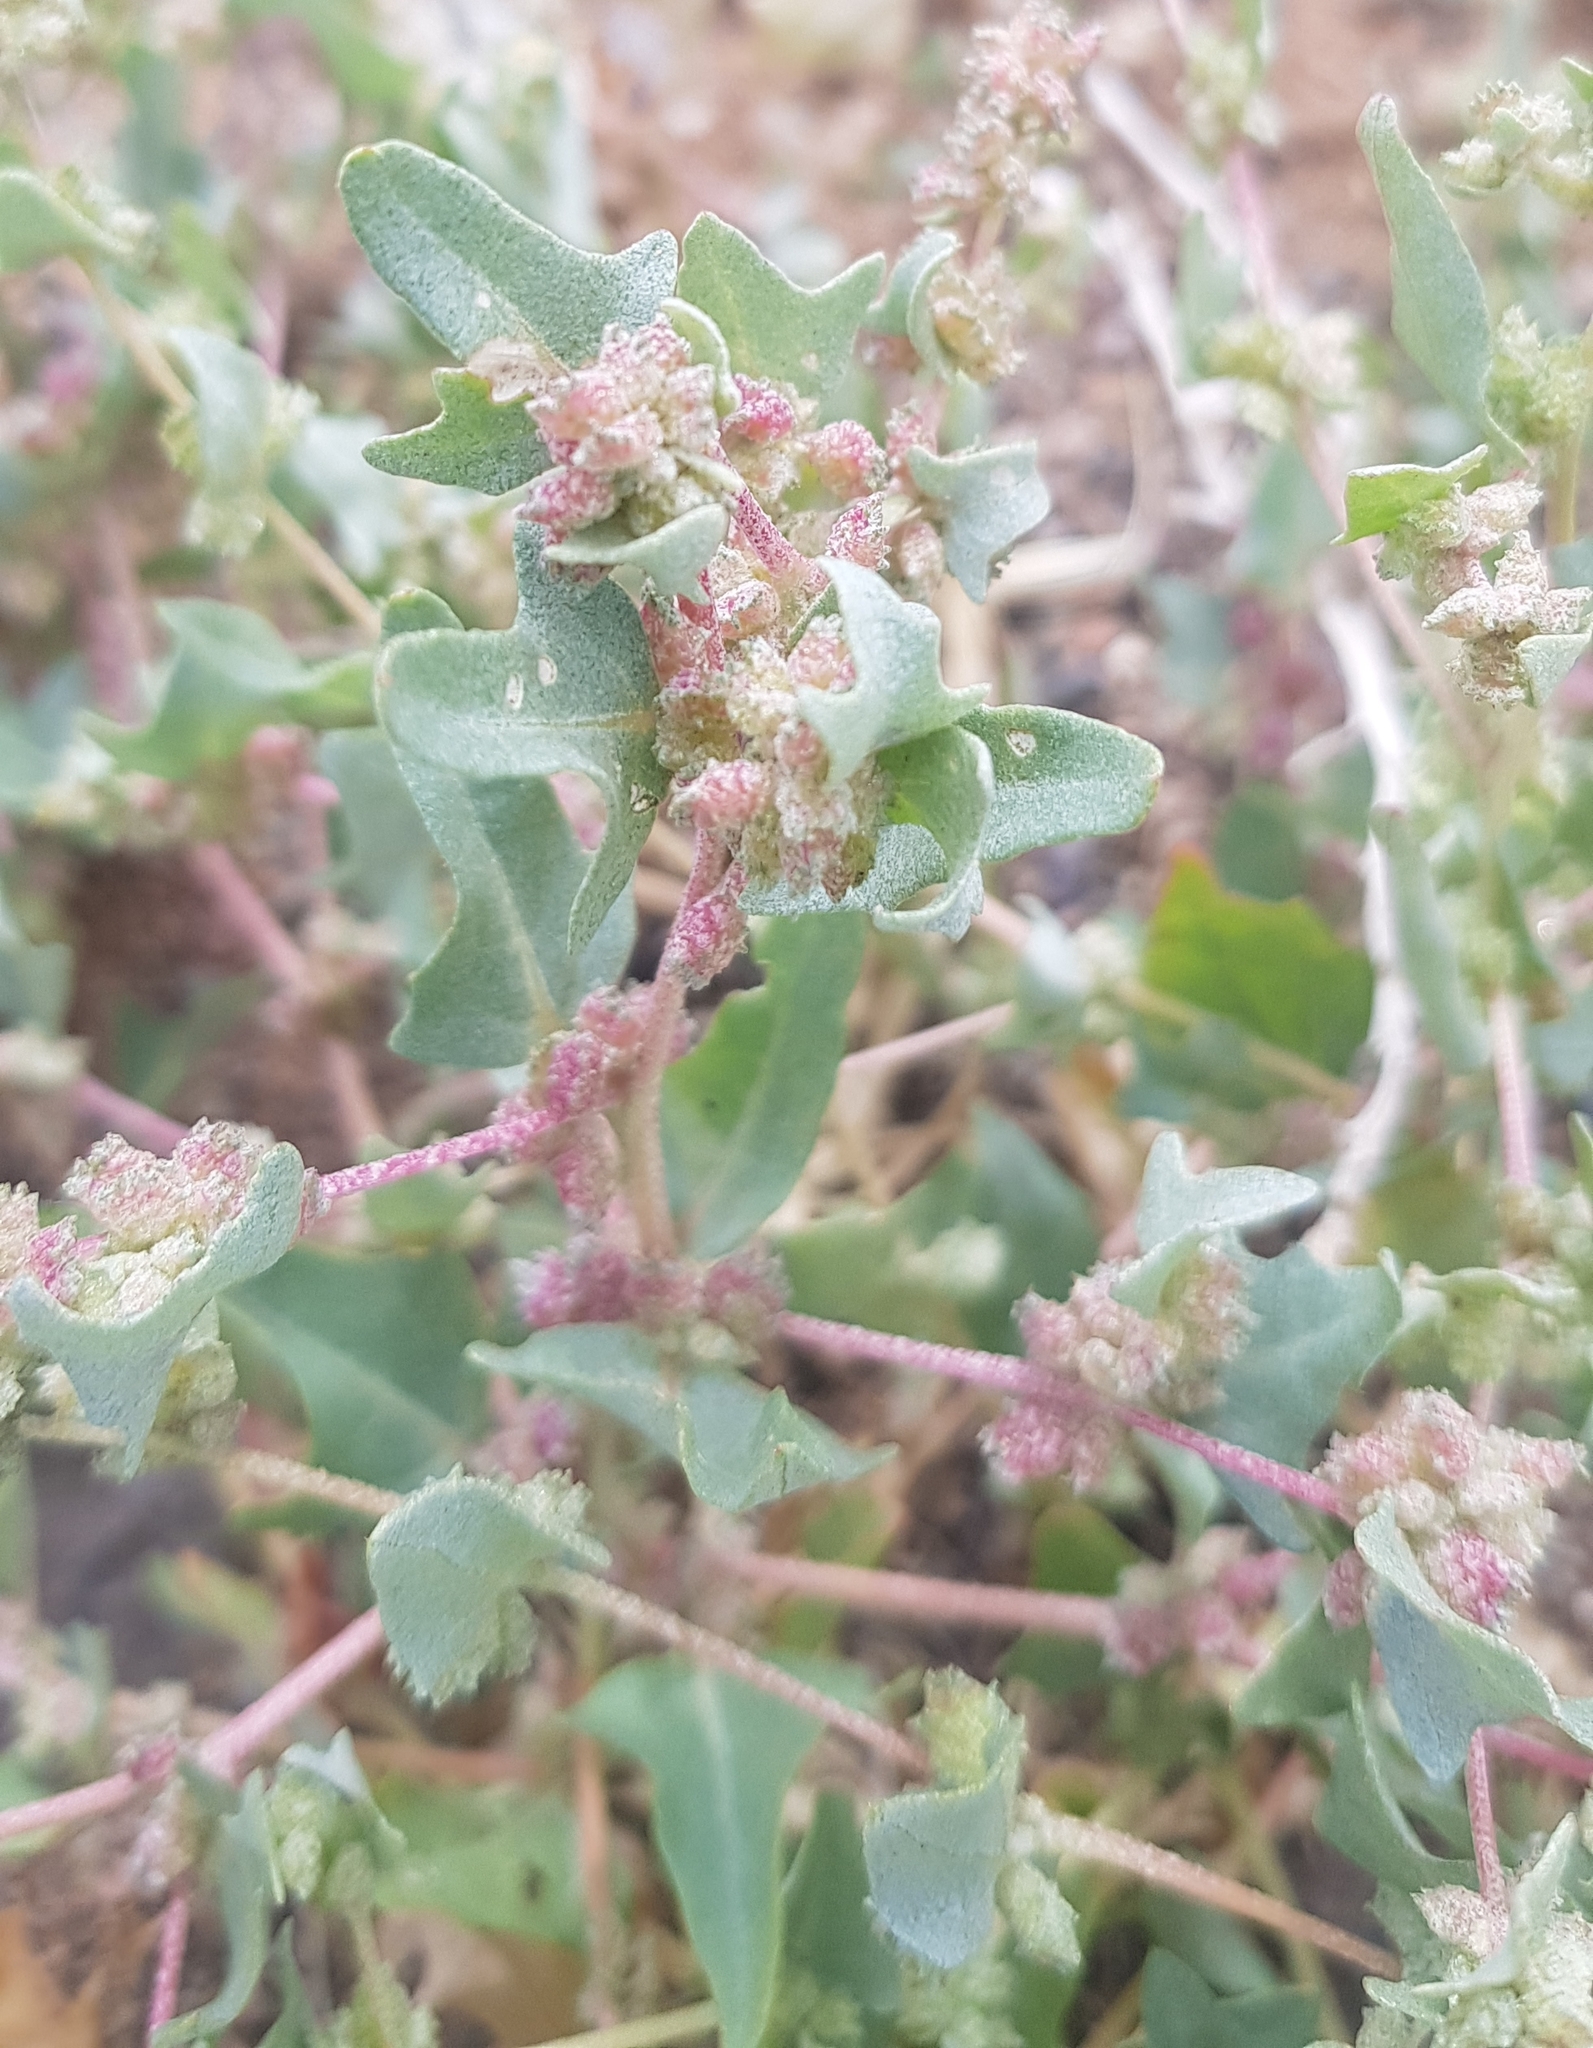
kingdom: Plantae
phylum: Tracheophyta
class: Magnoliopsida
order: Caryophyllales
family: Amaranthaceae
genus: Atriplex
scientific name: Atriplex sibirica
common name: Siberian saltbush
